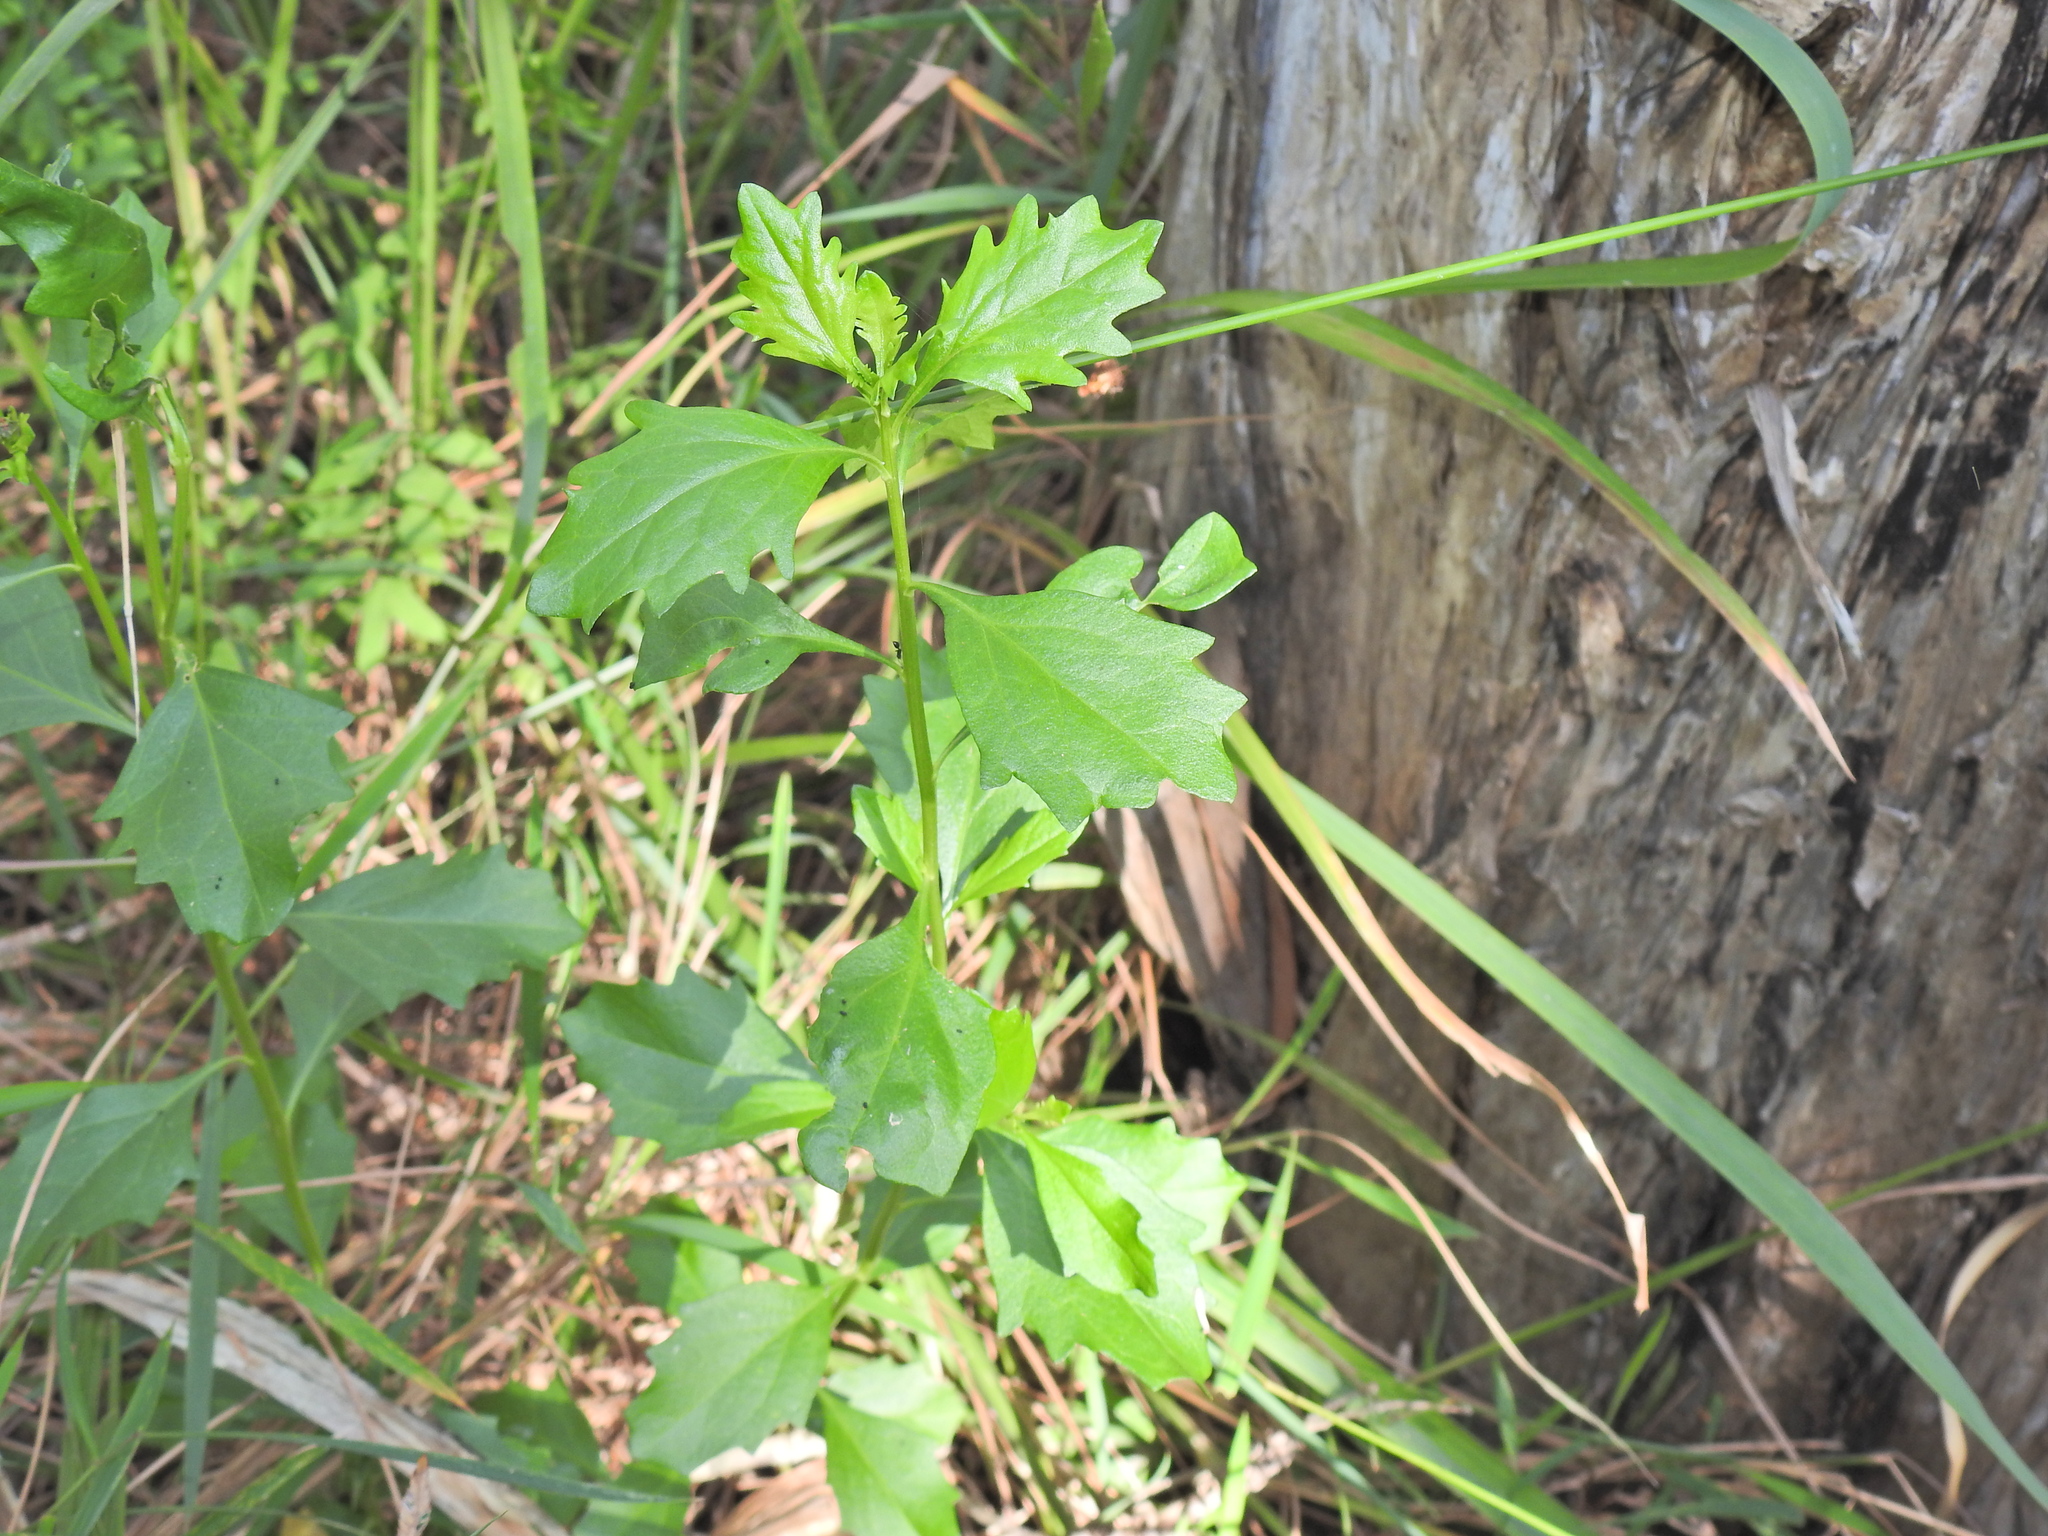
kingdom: Plantae
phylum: Tracheophyta
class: Magnoliopsida
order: Asterales
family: Asteraceae
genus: Baccharis
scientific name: Baccharis halimifolia
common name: Eastern baccharis
